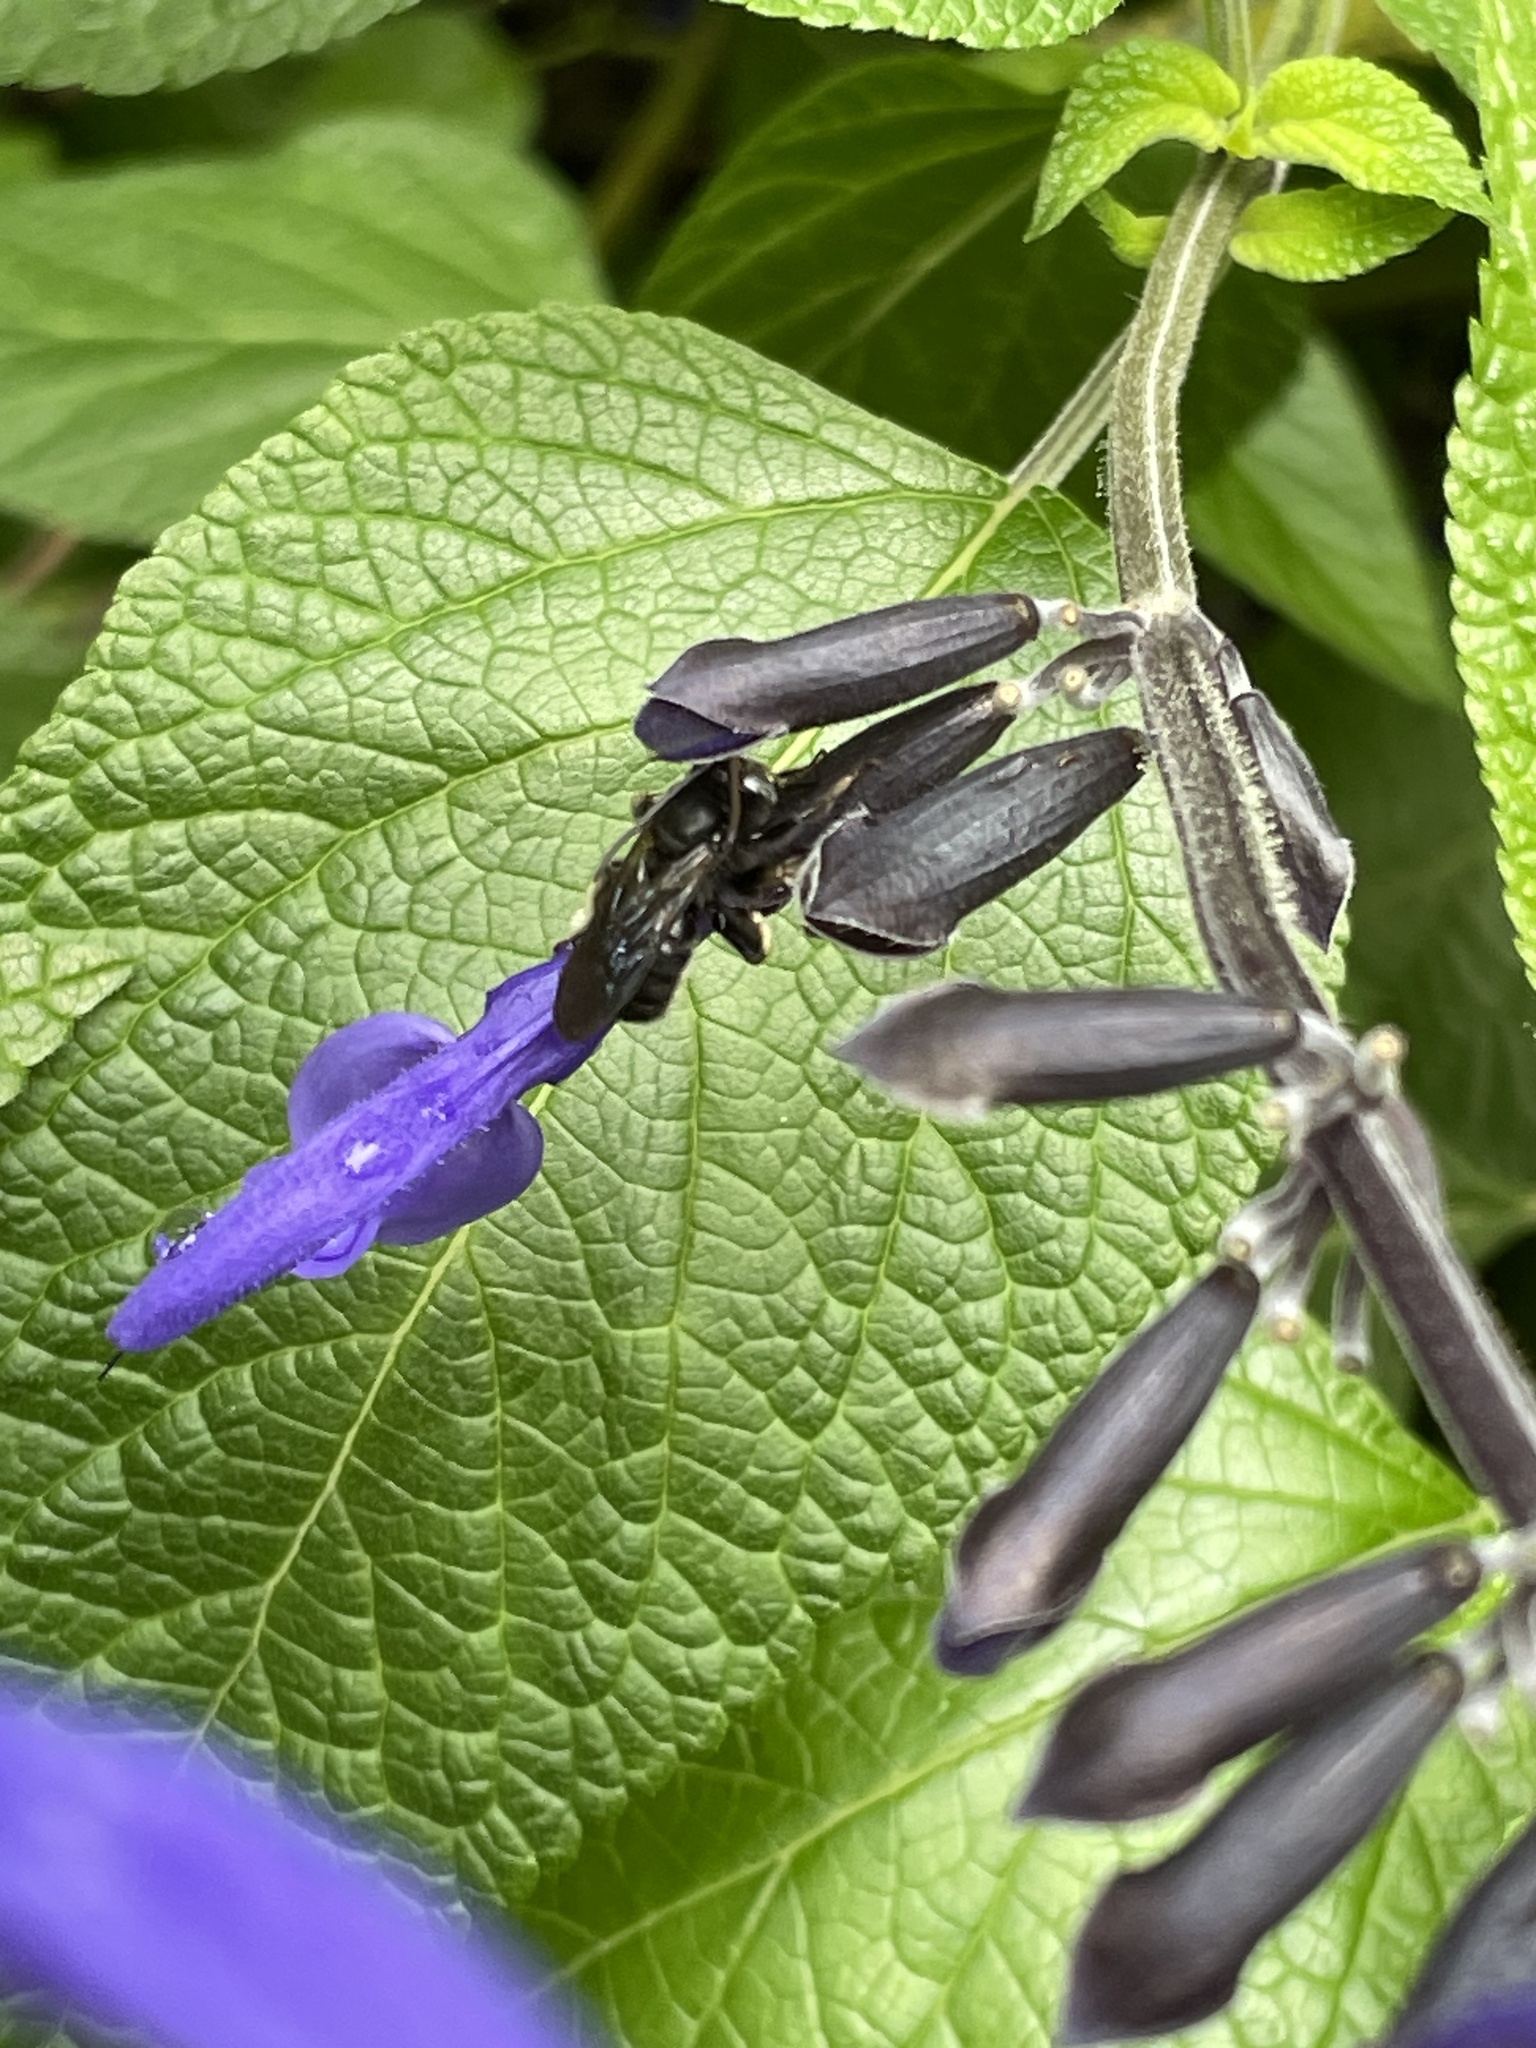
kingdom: Animalia
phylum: Arthropoda
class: Insecta
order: Hymenoptera
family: Apidae
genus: Melissodes
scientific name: Melissodes bimaculatus
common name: Two-spotted long-horned bee
